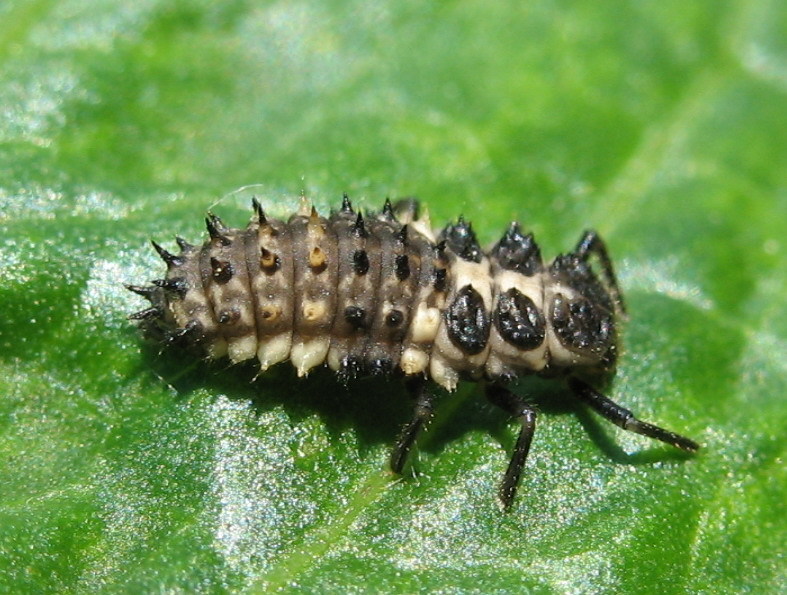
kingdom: Animalia
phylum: Arthropoda
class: Insecta
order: Coleoptera
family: Coccinellidae
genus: Calvia
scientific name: Calvia quatuordecimguttata
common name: Cream-spot ladybird
